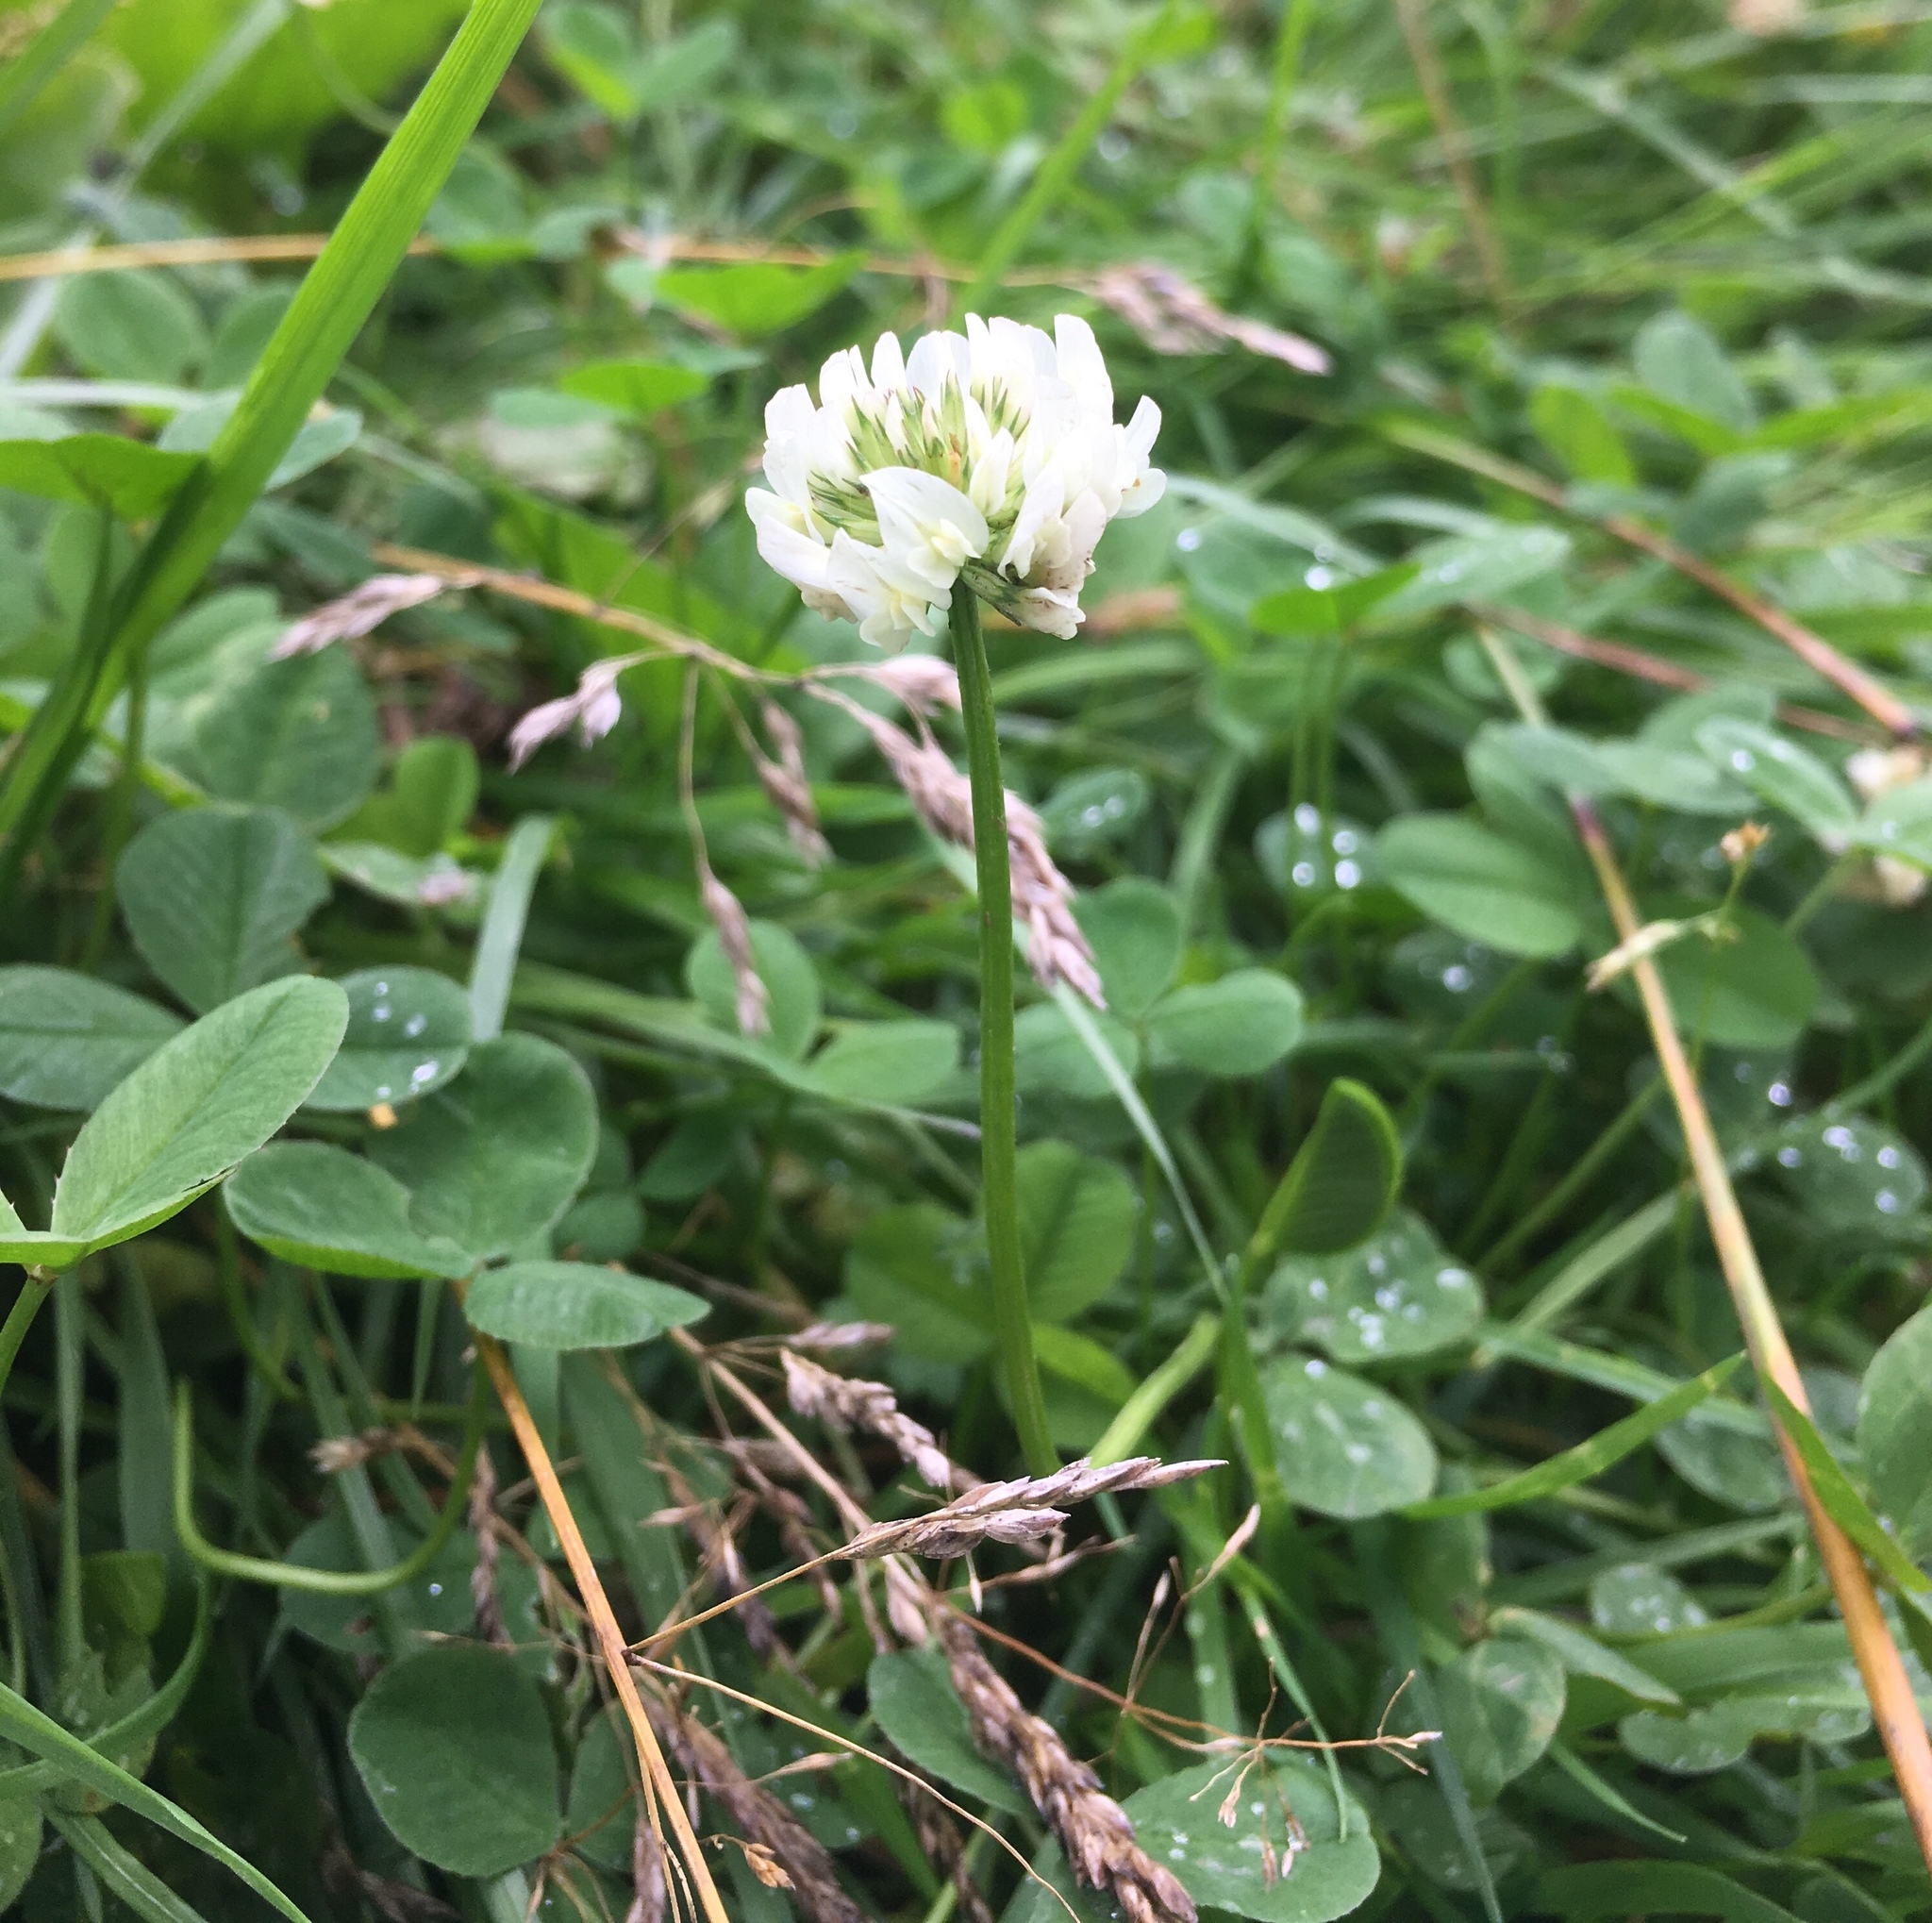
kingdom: Plantae
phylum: Tracheophyta
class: Magnoliopsida
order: Fabales
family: Fabaceae
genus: Trifolium
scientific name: Trifolium repens
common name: White clover
